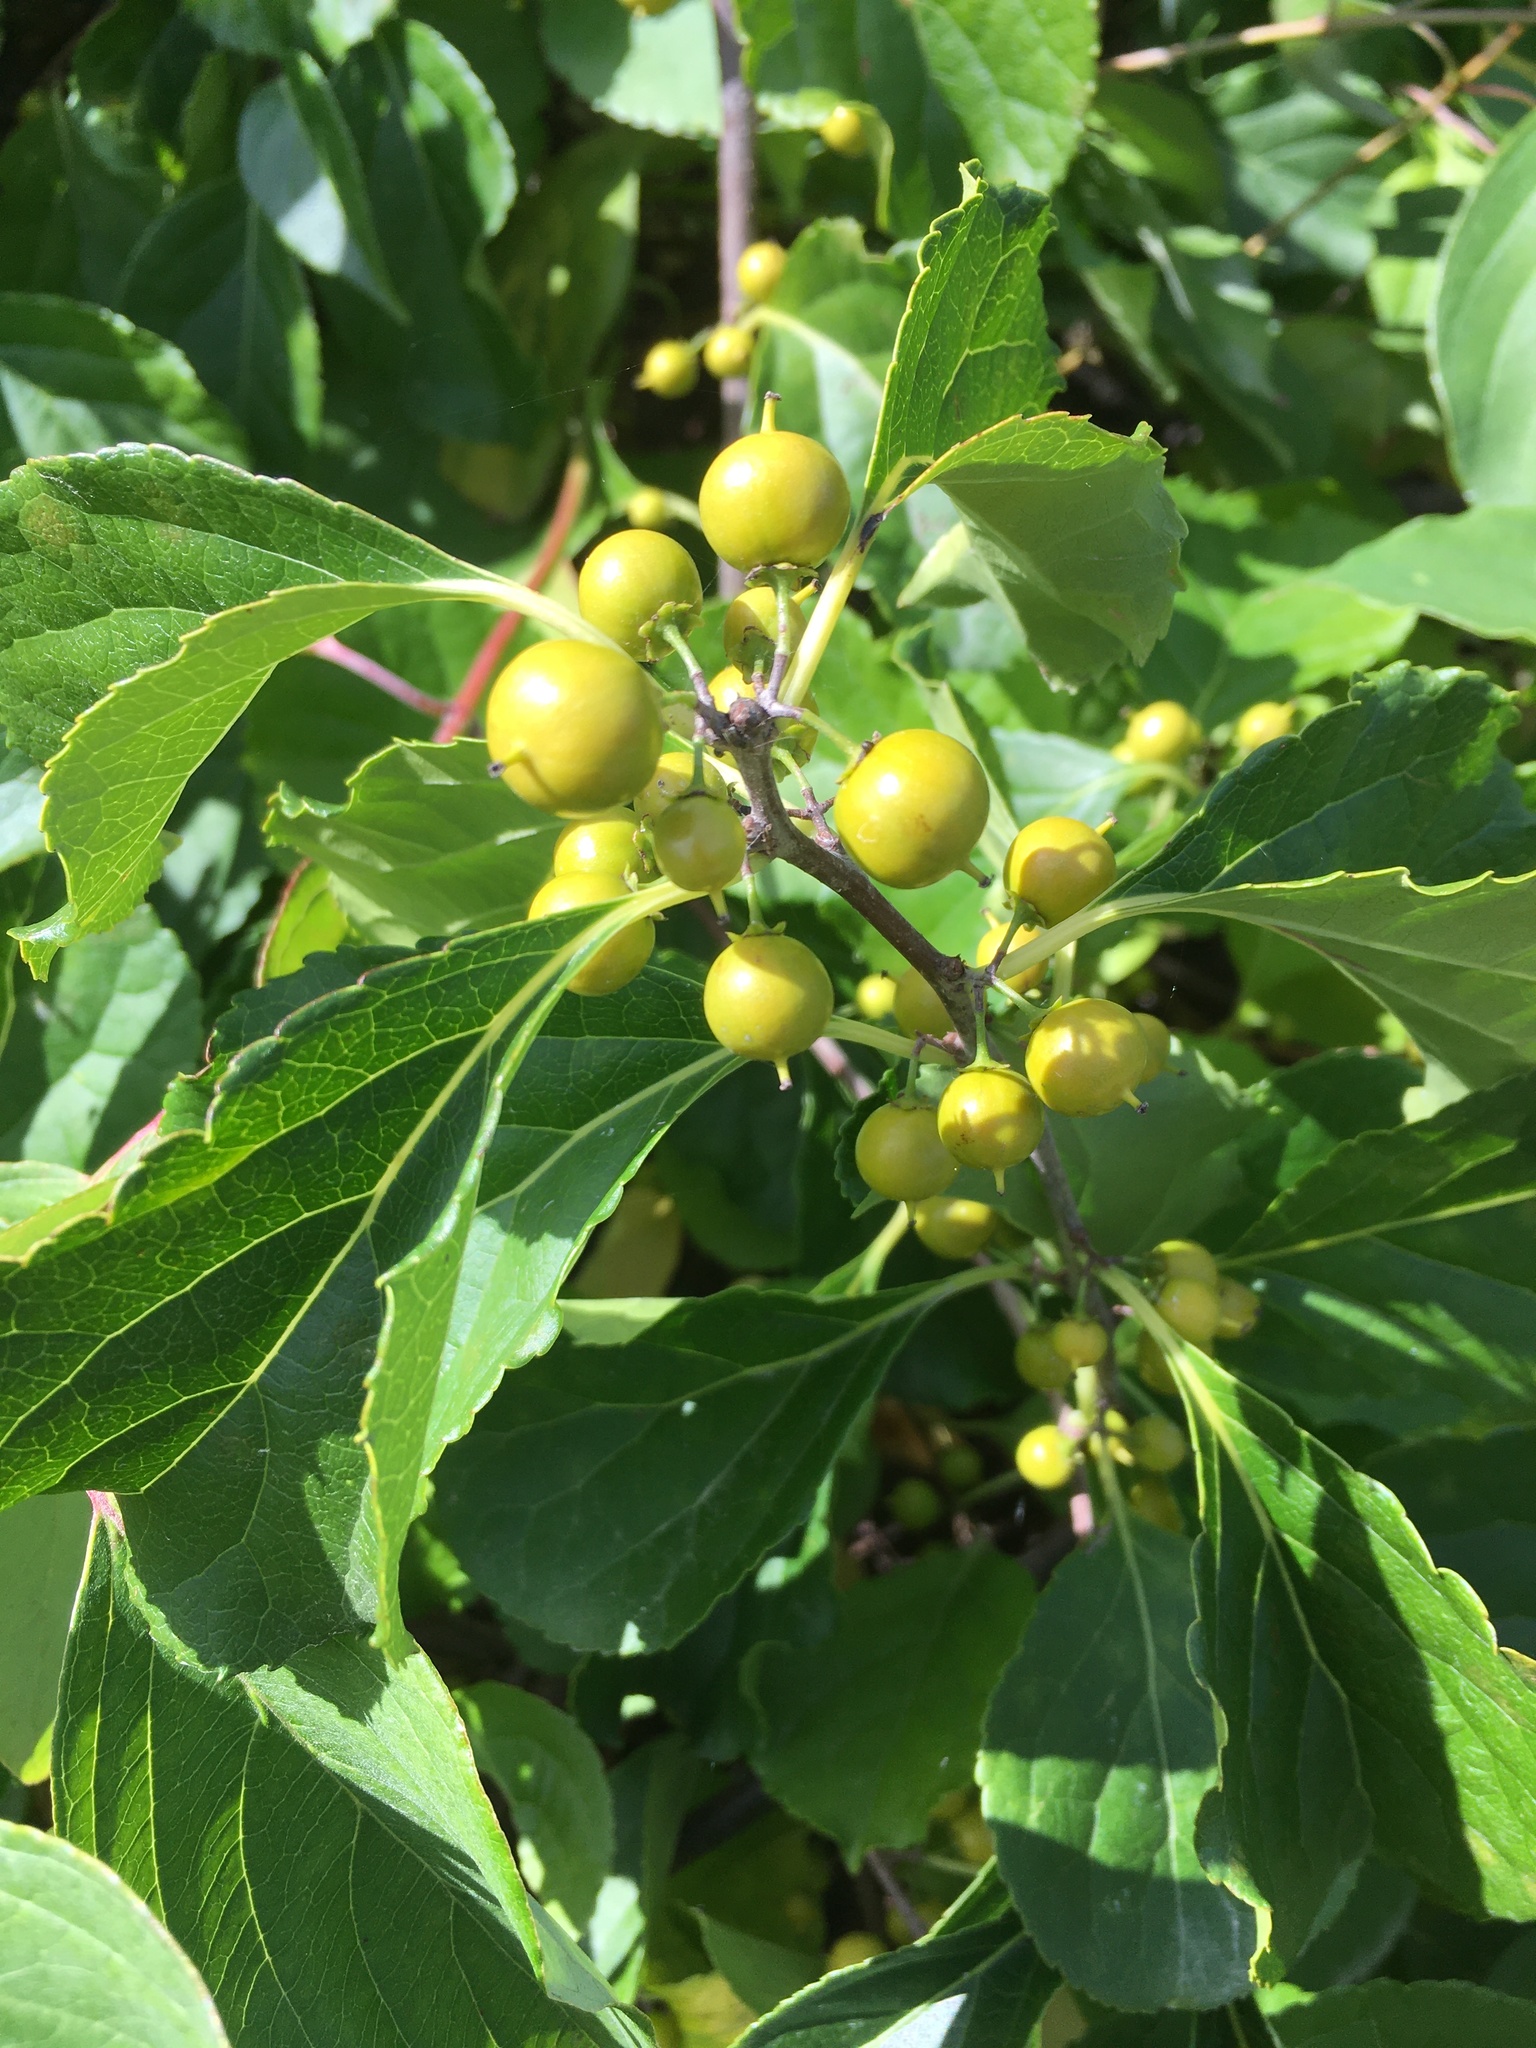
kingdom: Plantae
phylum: Tracheophyta
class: Magnoliopsida
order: Celastrales
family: Celastraceae
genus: Celastrus
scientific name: Celastrus orbiculatus
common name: Oriental bittersweet
